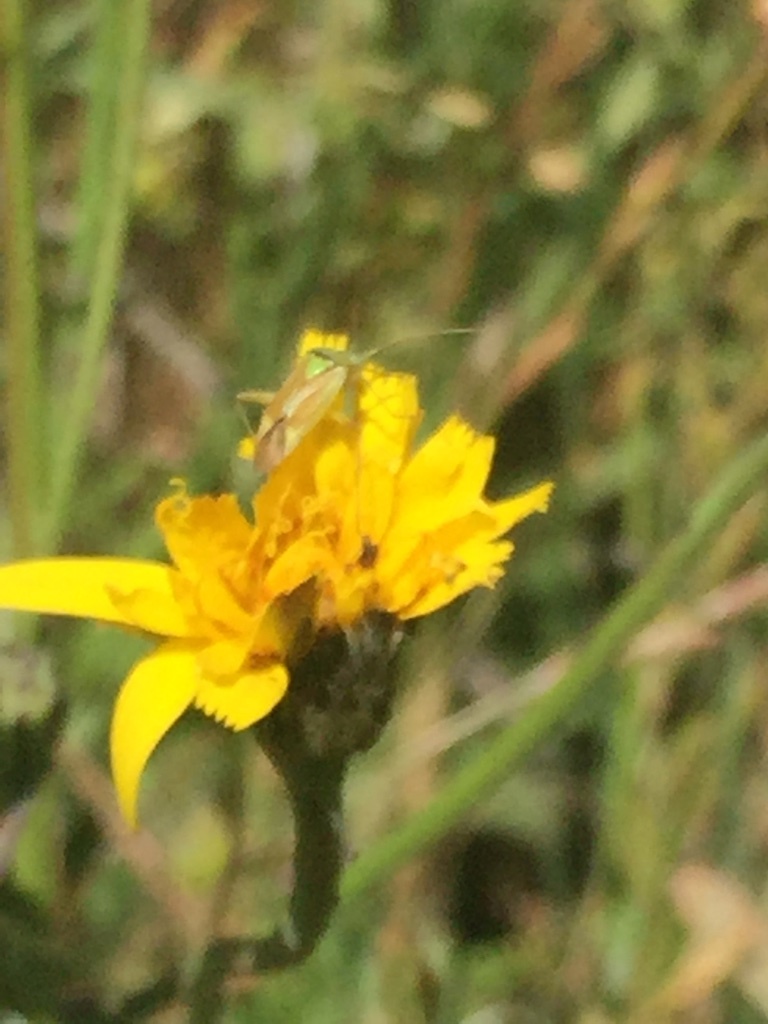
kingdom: Animalia
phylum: Arthropoda
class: Insecta
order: Hemiptera
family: Miridae
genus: Closterotomus
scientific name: Closterotomus norvegicus
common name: Plant bug
